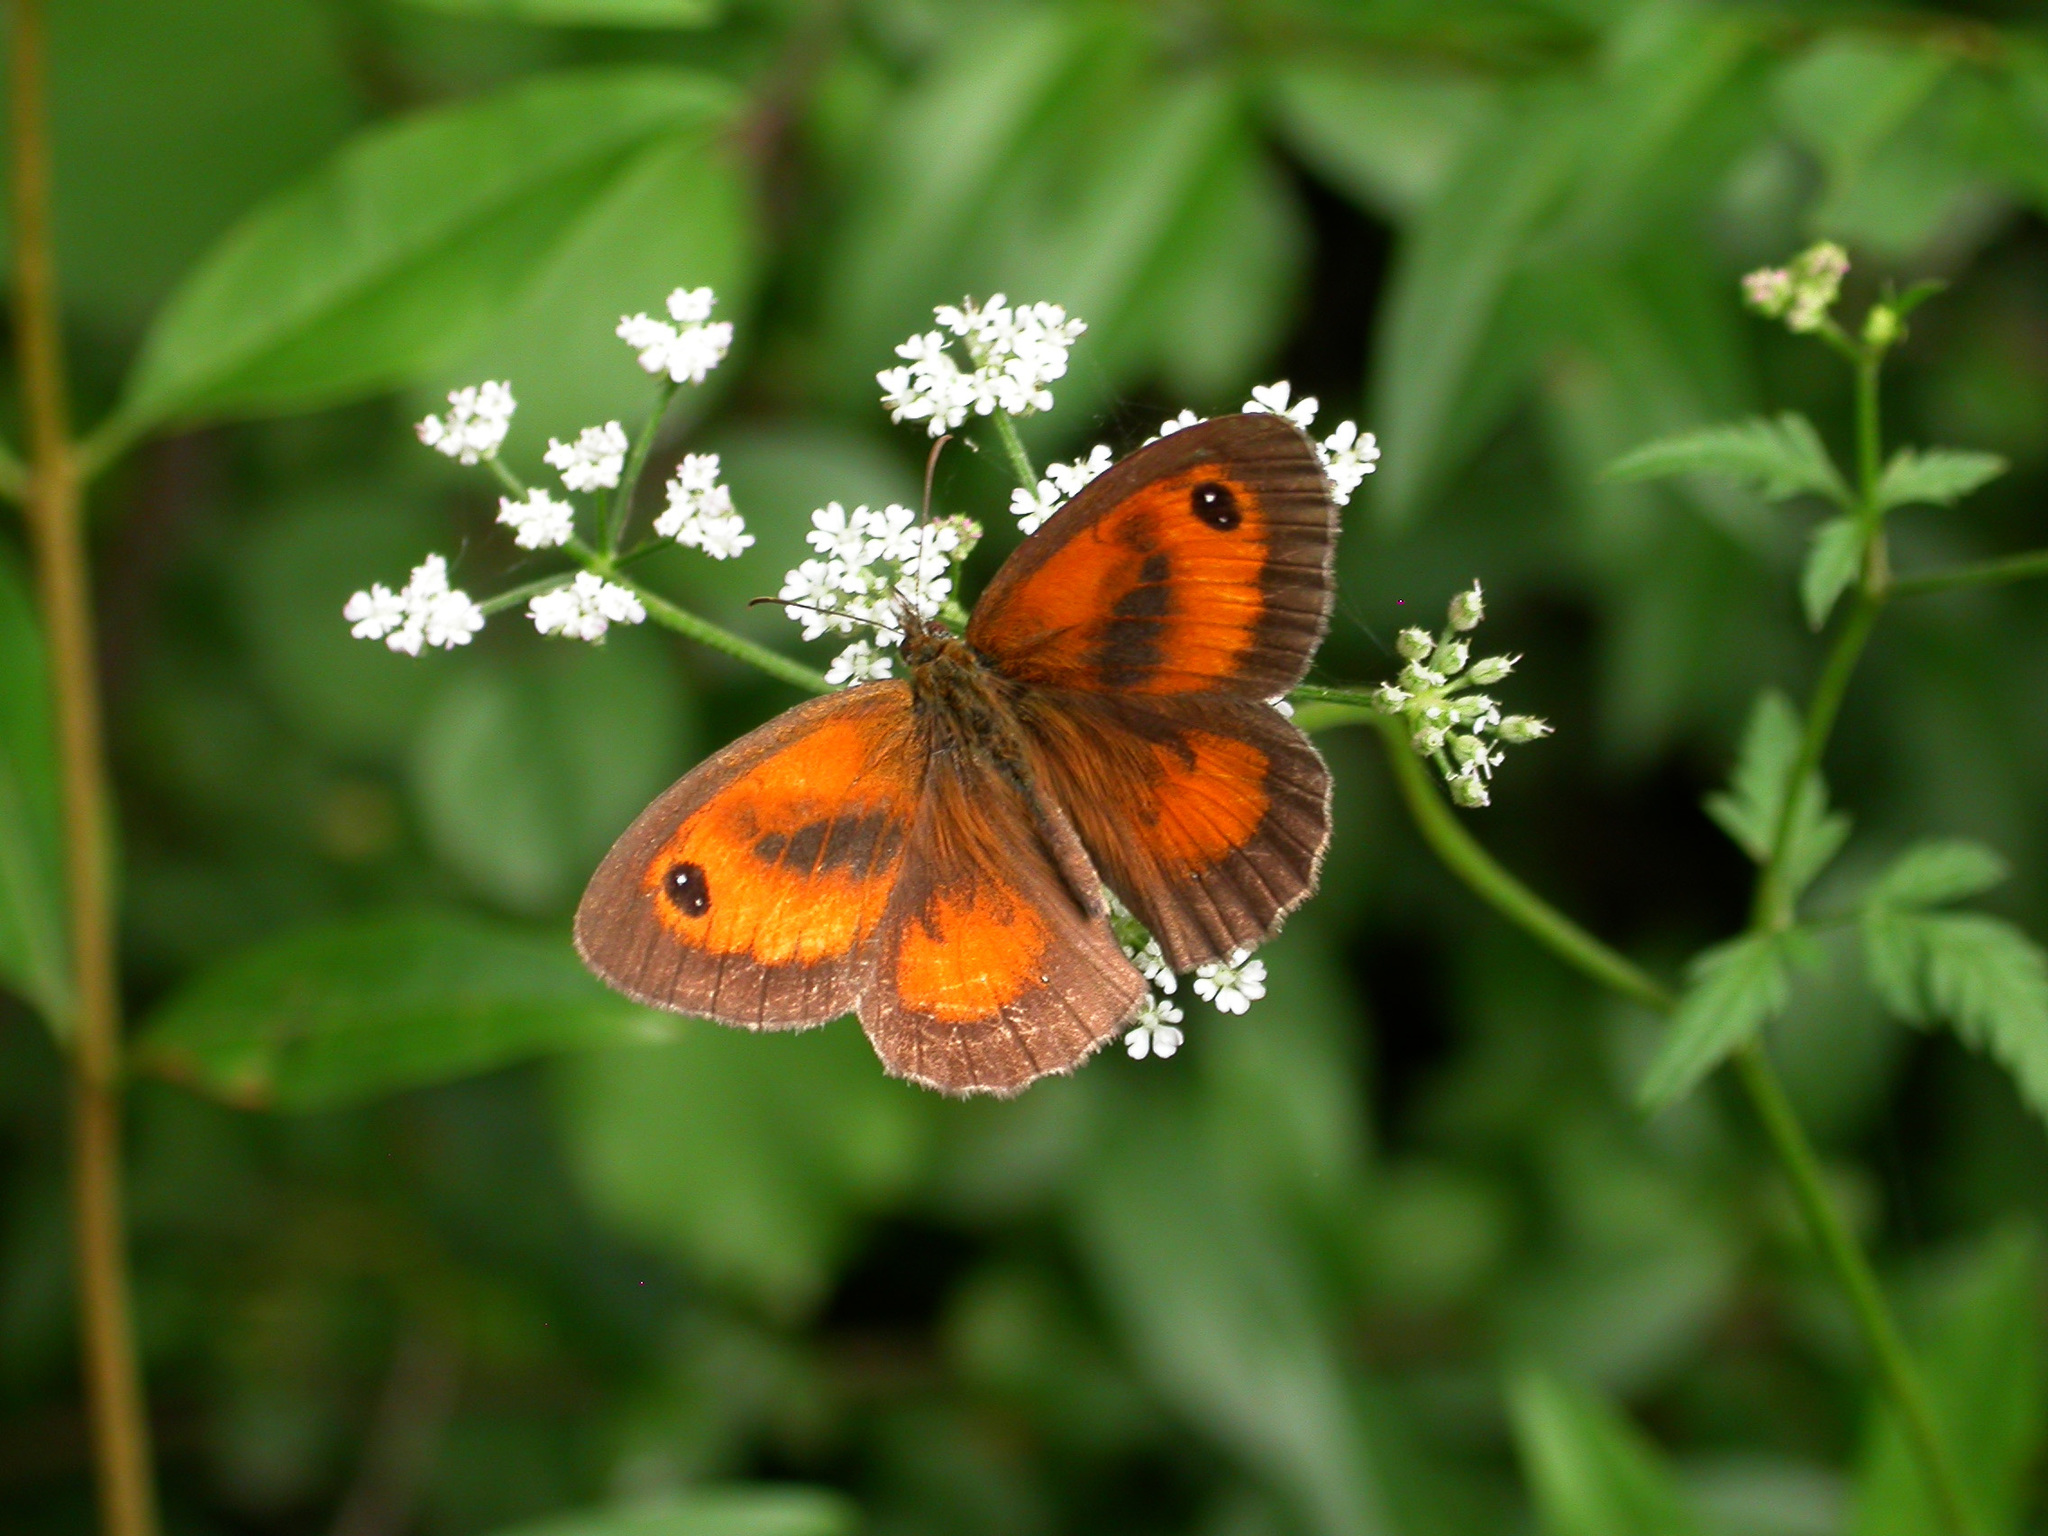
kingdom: Animalia
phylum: Arthropoda
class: Insecta
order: Lepidoptera
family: Nymphalidae
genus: Pyronia
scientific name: Pyronia tithonus
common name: Gatekeeper
